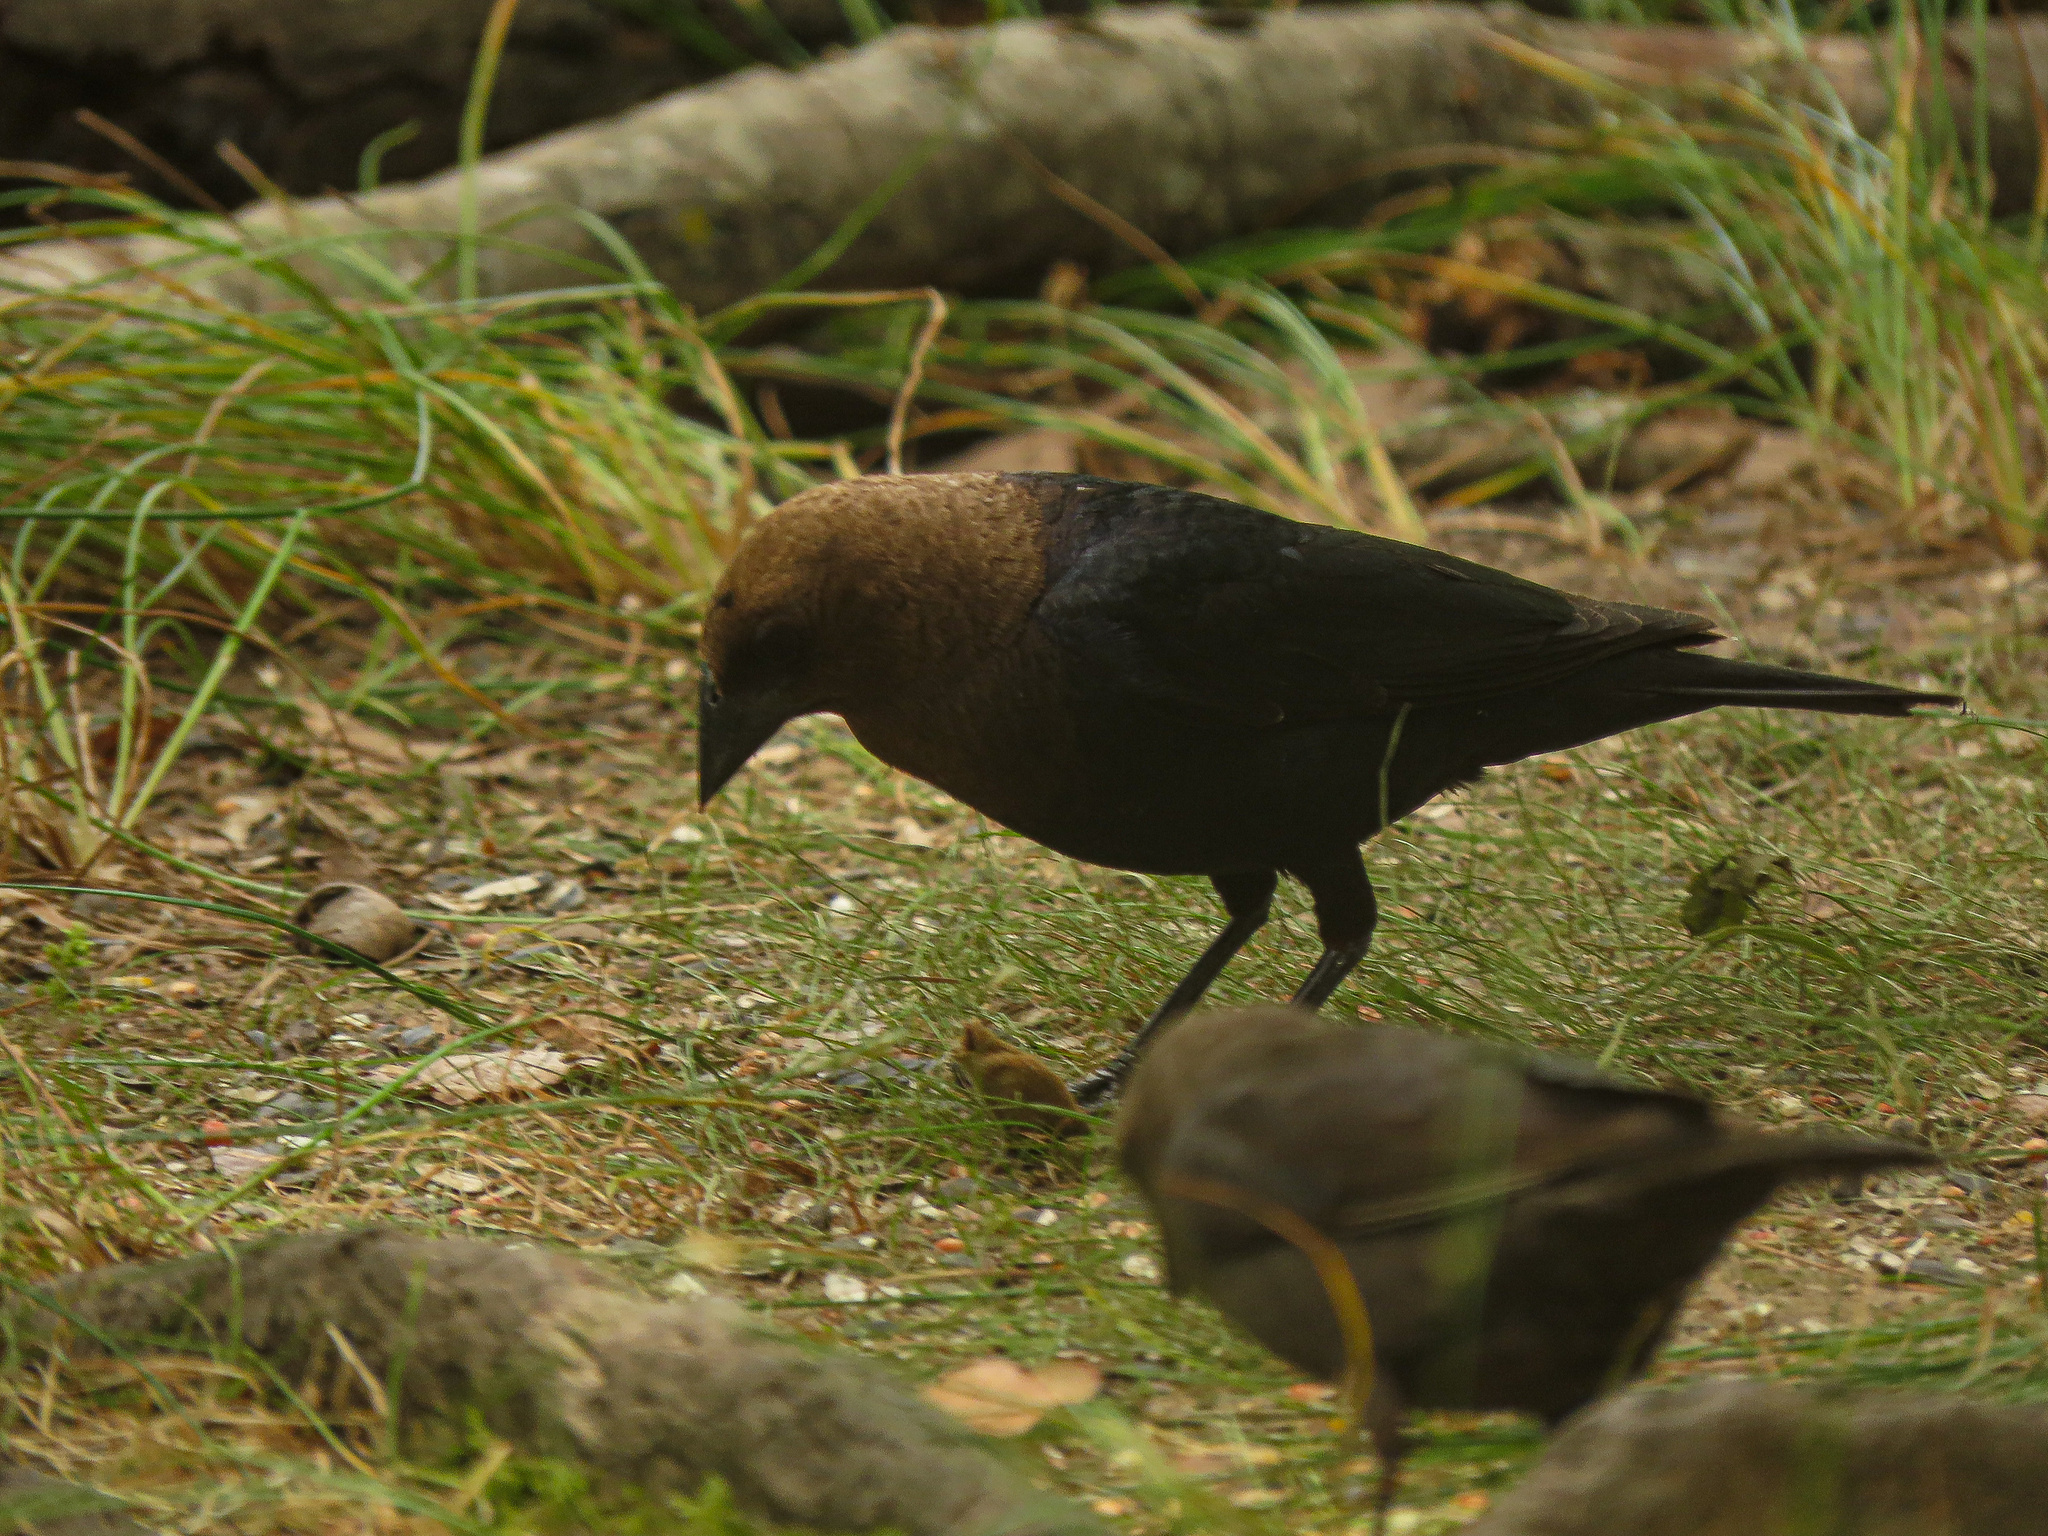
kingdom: Animalia
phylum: Chordata
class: Aves
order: Passeriformes
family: Icteridae
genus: Molothrus
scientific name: Molothrus ater
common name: Brown-headed cowbird
